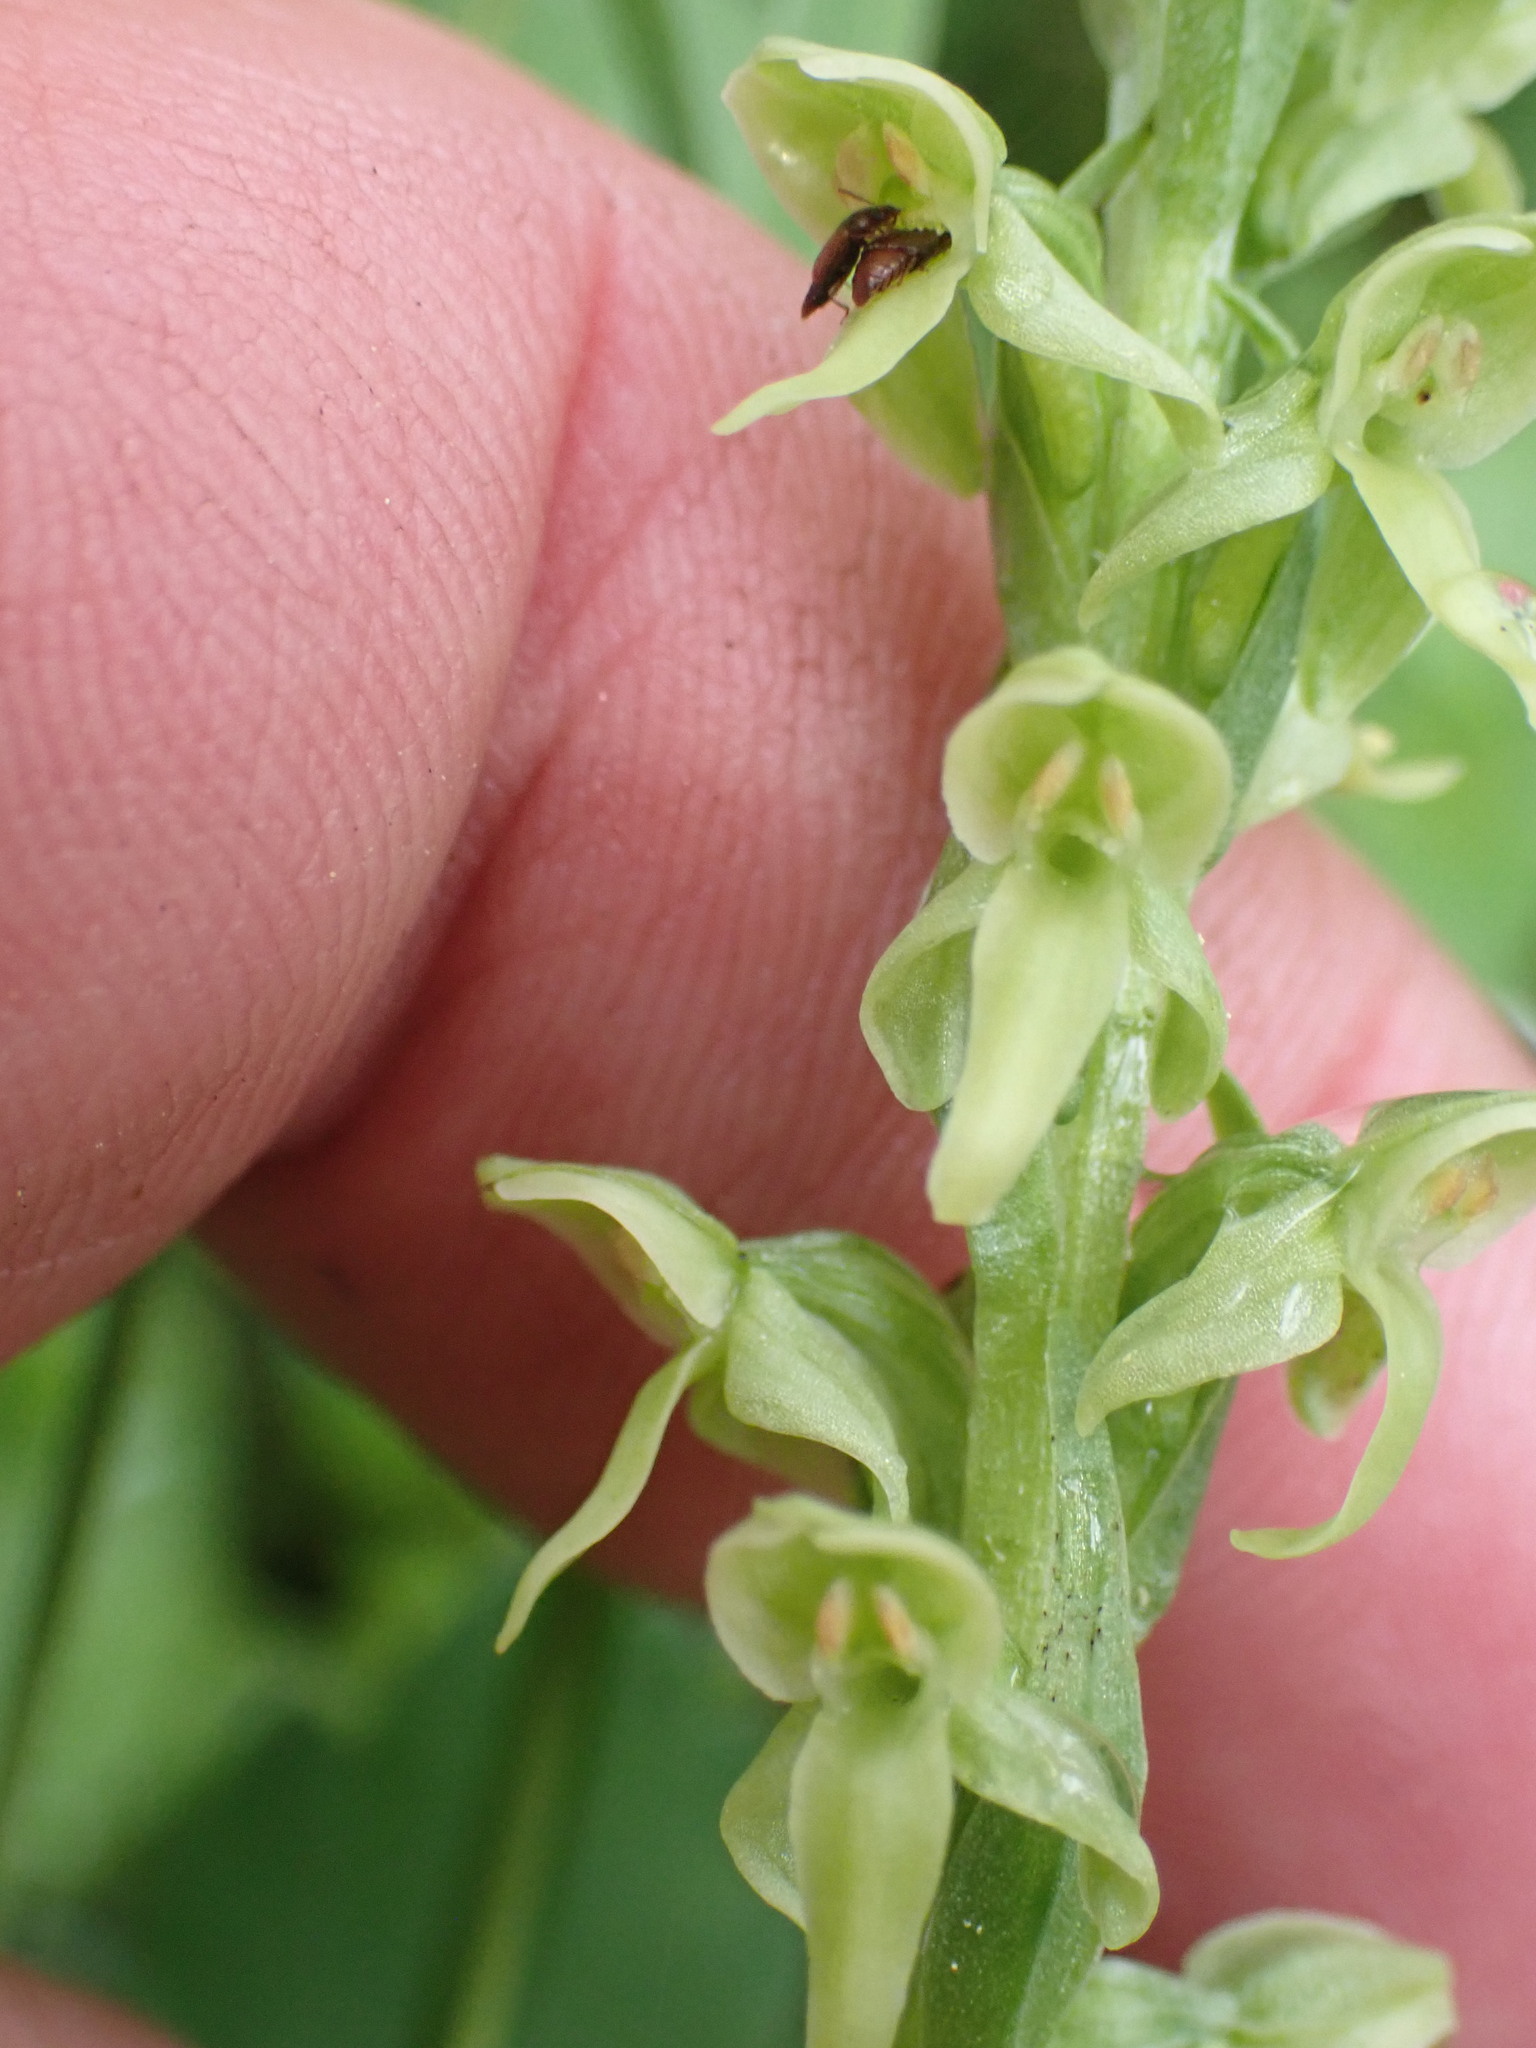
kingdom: Plantae
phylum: Tracheophyta
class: Liliopsida
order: Asparagales
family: Orchidaceae
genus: Platanthera
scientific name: Platanthera huronensis
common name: Fragrant green orchid
